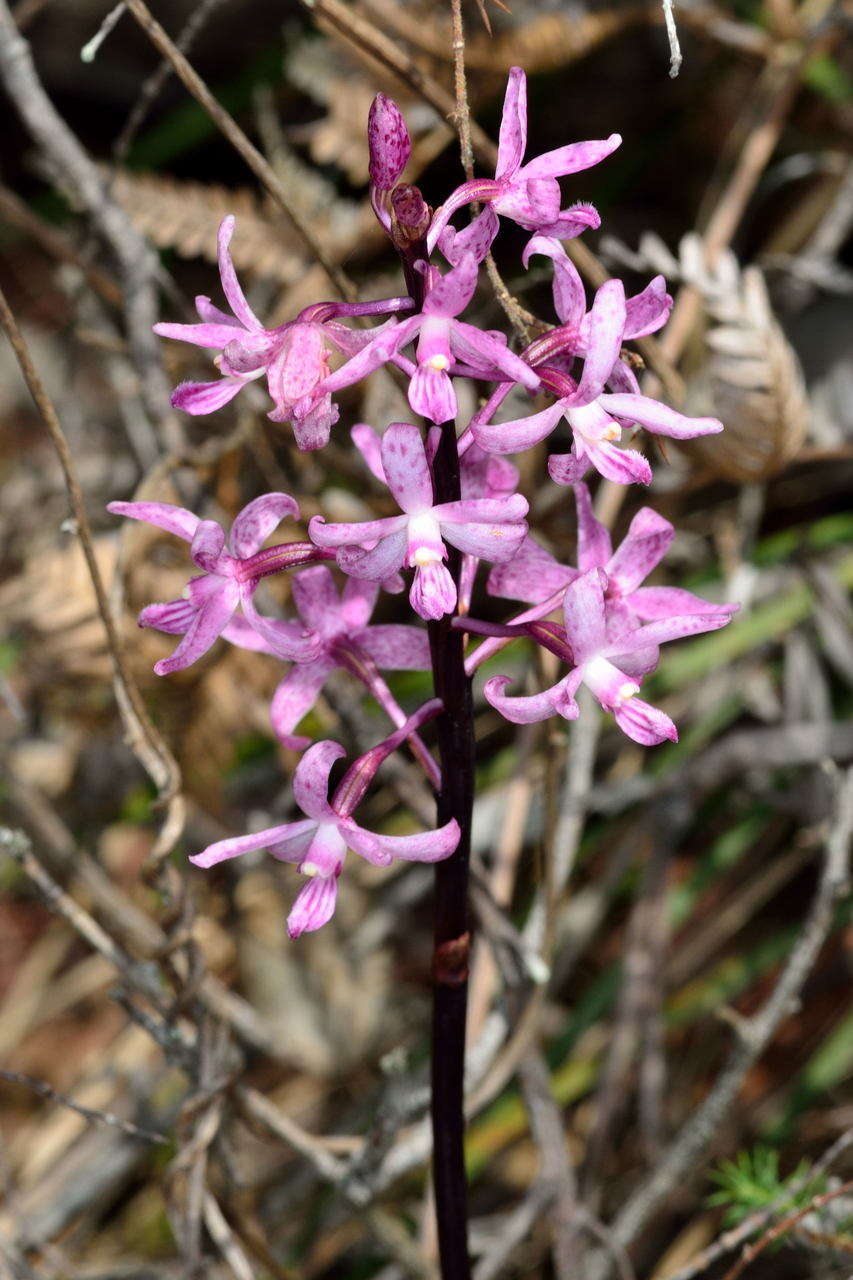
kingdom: Plantae
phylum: Tracheophyta
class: Liliopsida
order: Asparagales
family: Orchidaceae
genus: Dipodium
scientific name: Dipodium roseum
